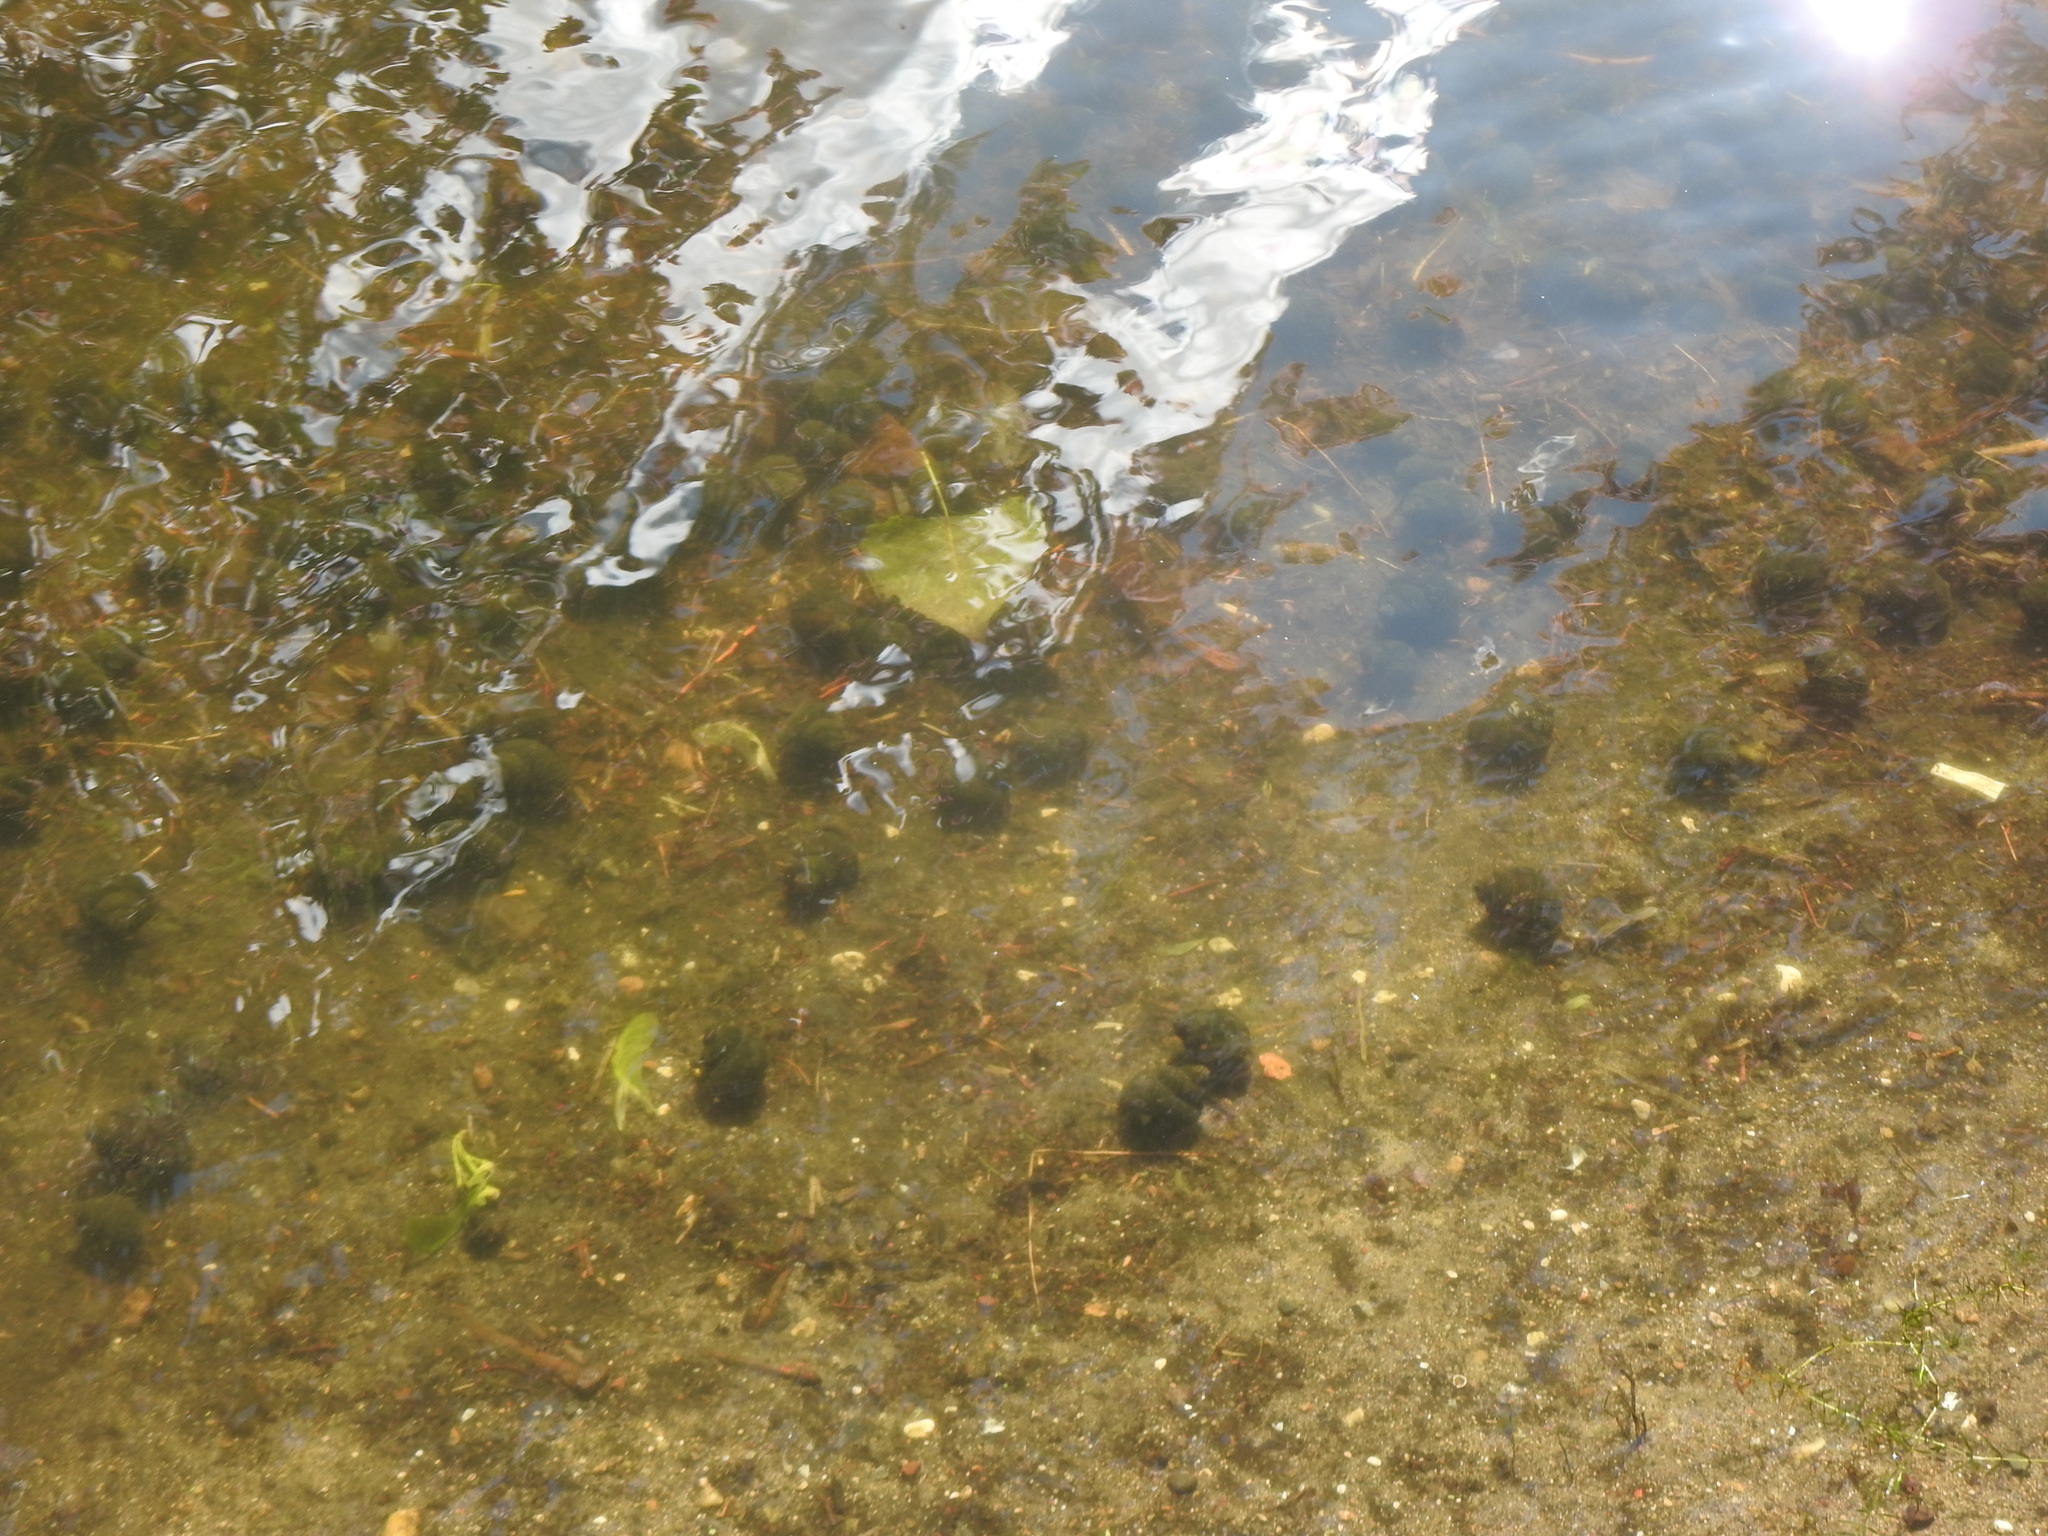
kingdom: Animalia
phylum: Mollusca
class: Gastropoda
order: Architaenioglossa
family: Viviparidae
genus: Cipangopaludina
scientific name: Cipangopaludina chinensis
